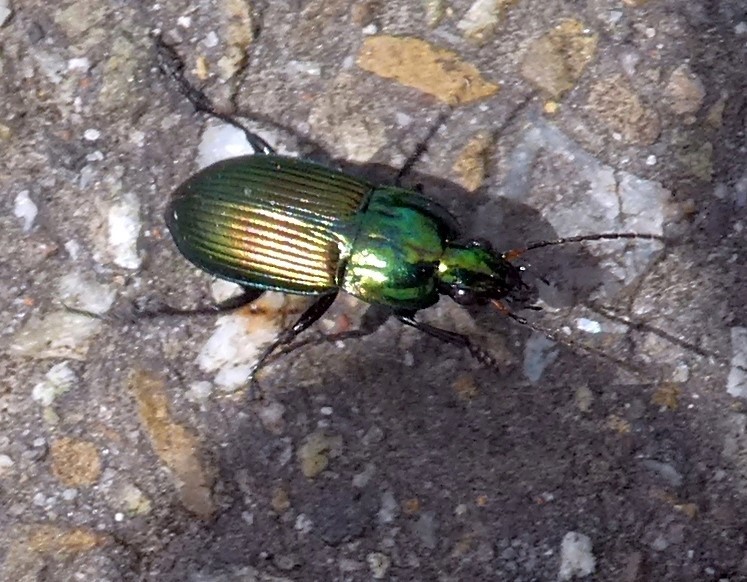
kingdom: Animalia
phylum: Arthropoda
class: Insecta
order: Coleoptera
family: Carabidae
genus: Poecilus
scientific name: Poecilus versicolor
